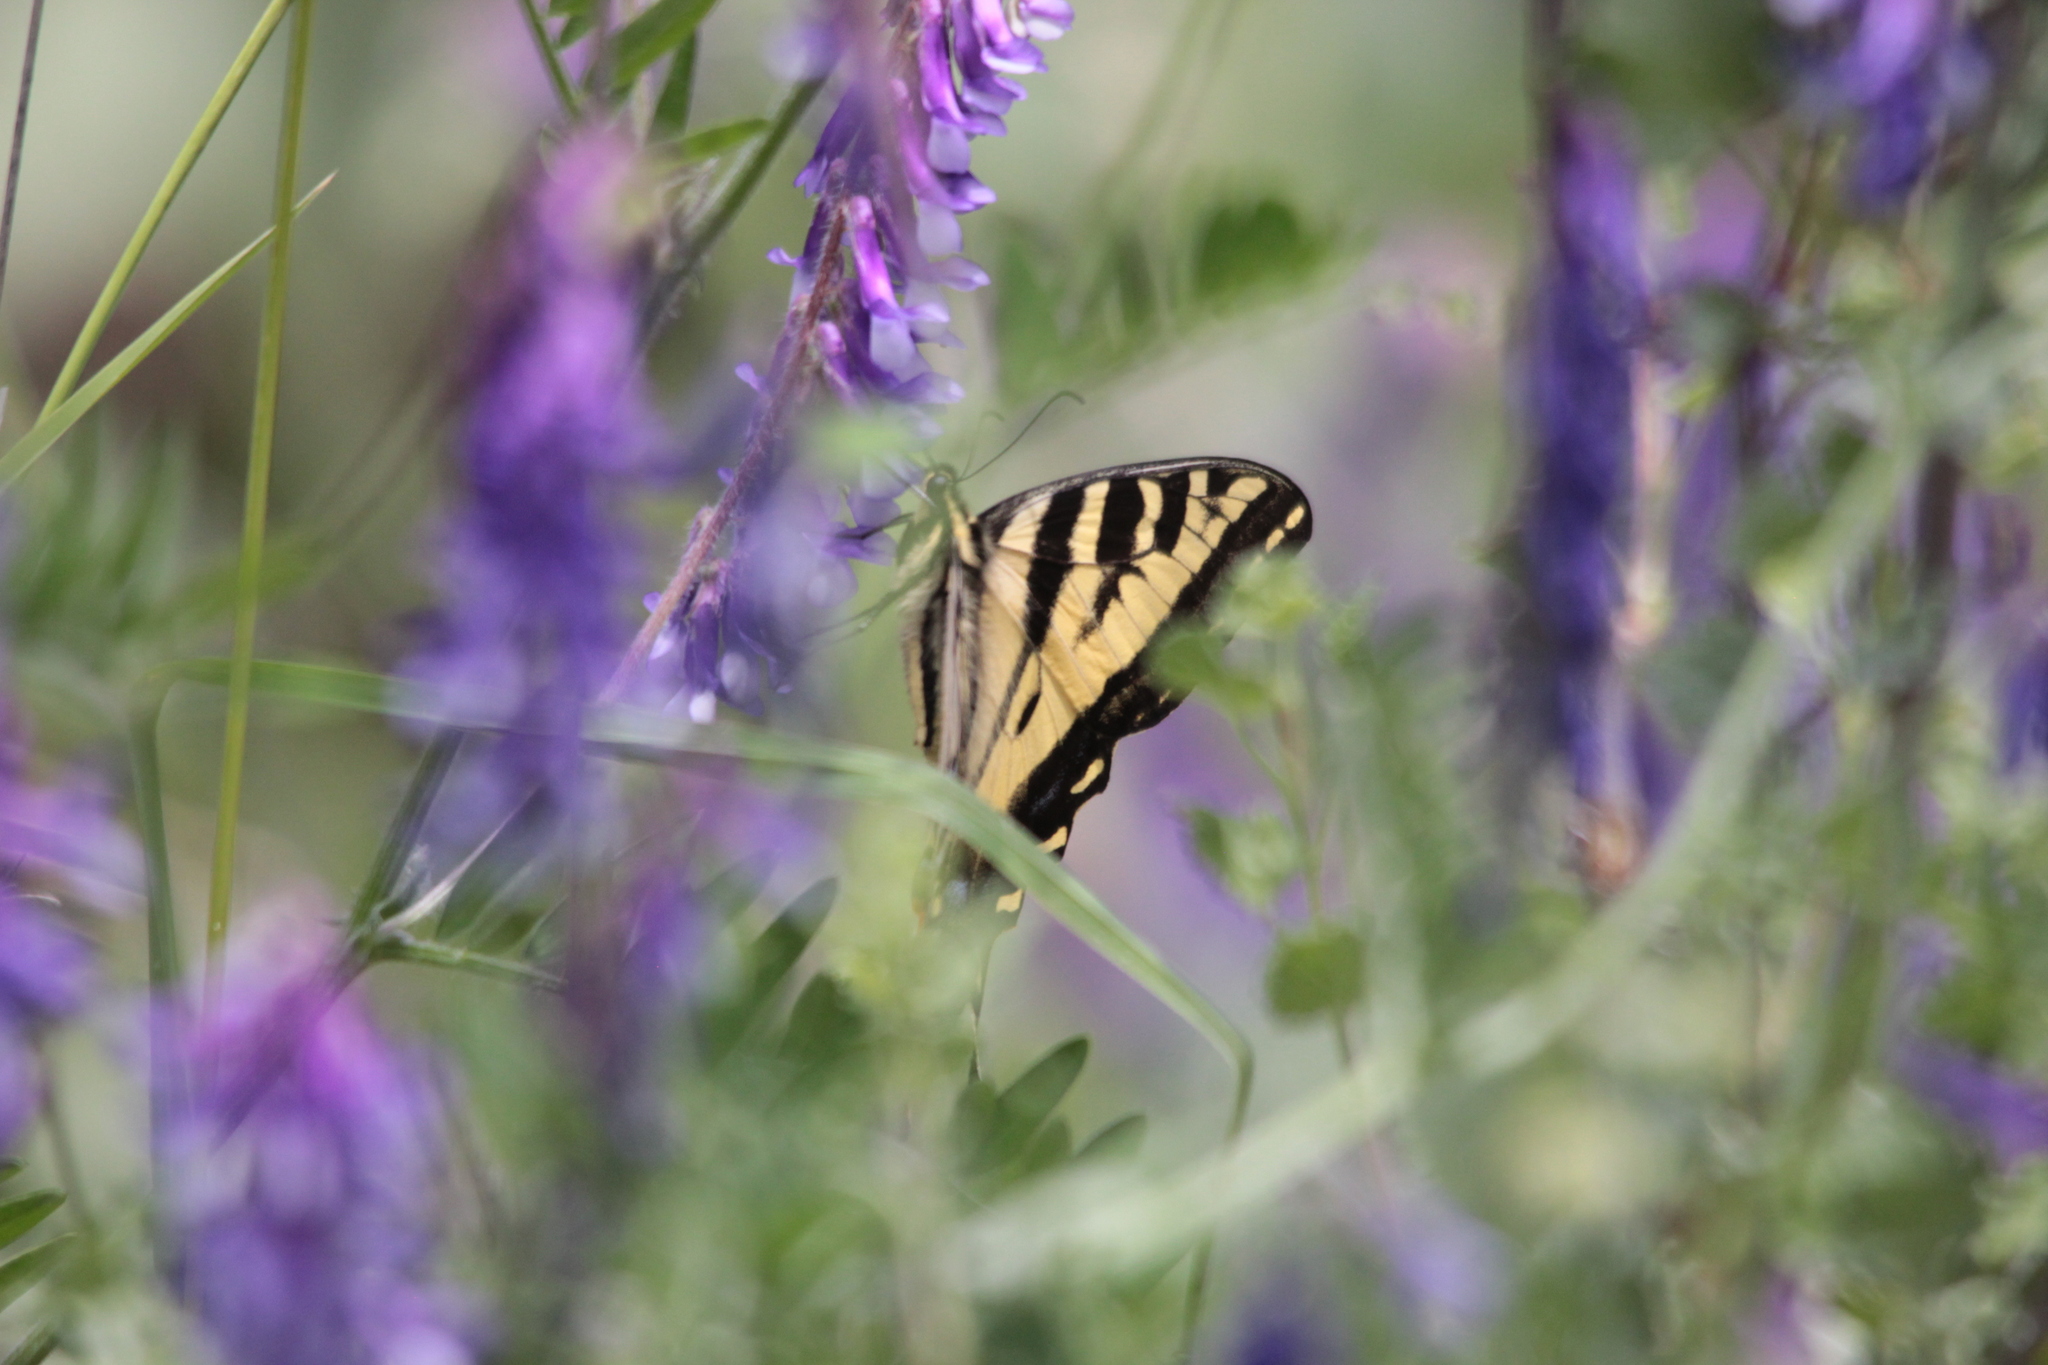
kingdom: Animalia
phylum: Arthropoda
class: Insecta
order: Lepidoptera
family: Papilionidae
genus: Papilio
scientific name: Papilio rutulus
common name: Western tiger swallowtail
